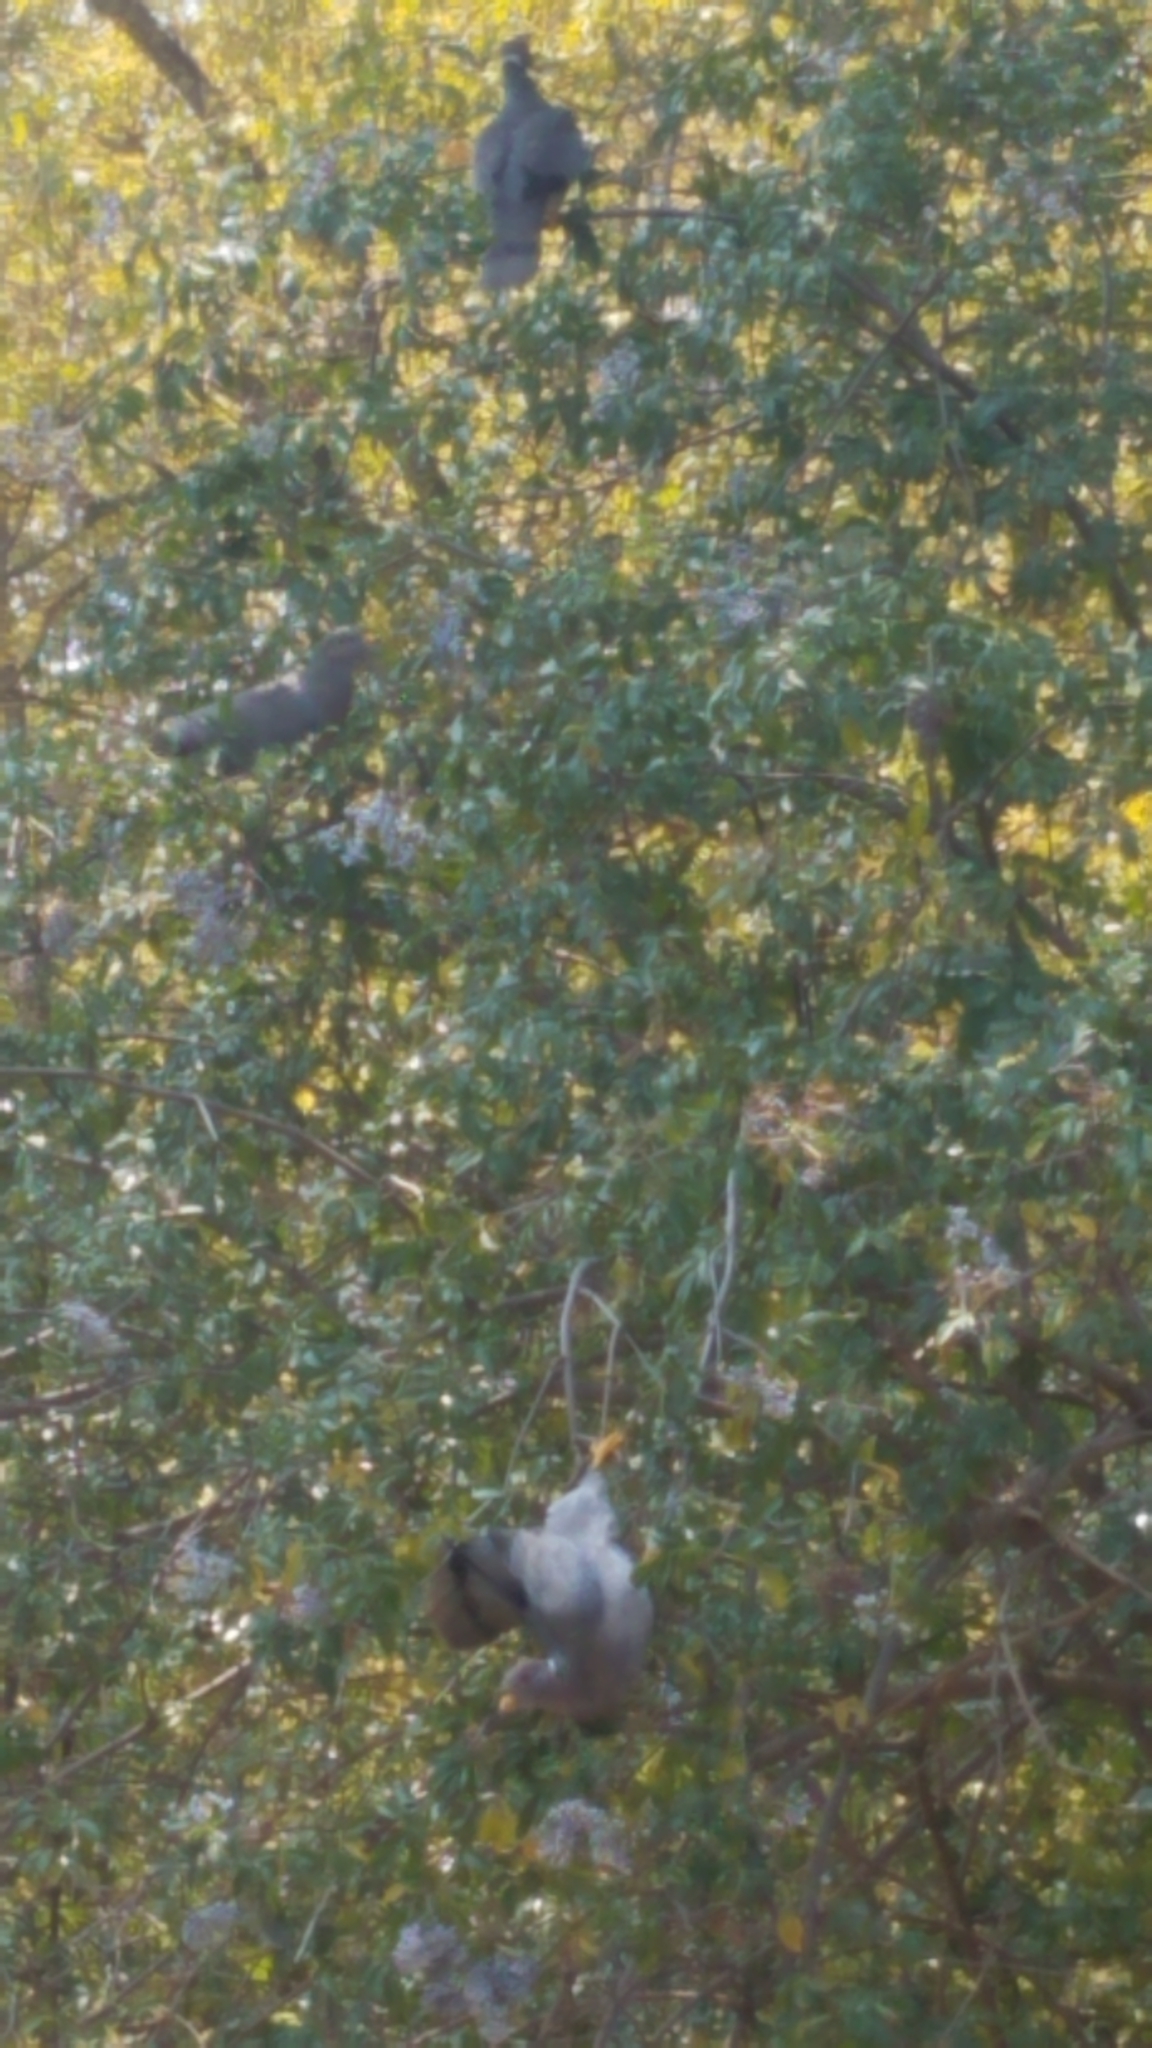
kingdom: Animalia
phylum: Chordata
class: Aves
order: Columbiformes
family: Columbidae
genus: Patagioenas
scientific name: Patagioenas fasciata
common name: Band-tailed pigeon
